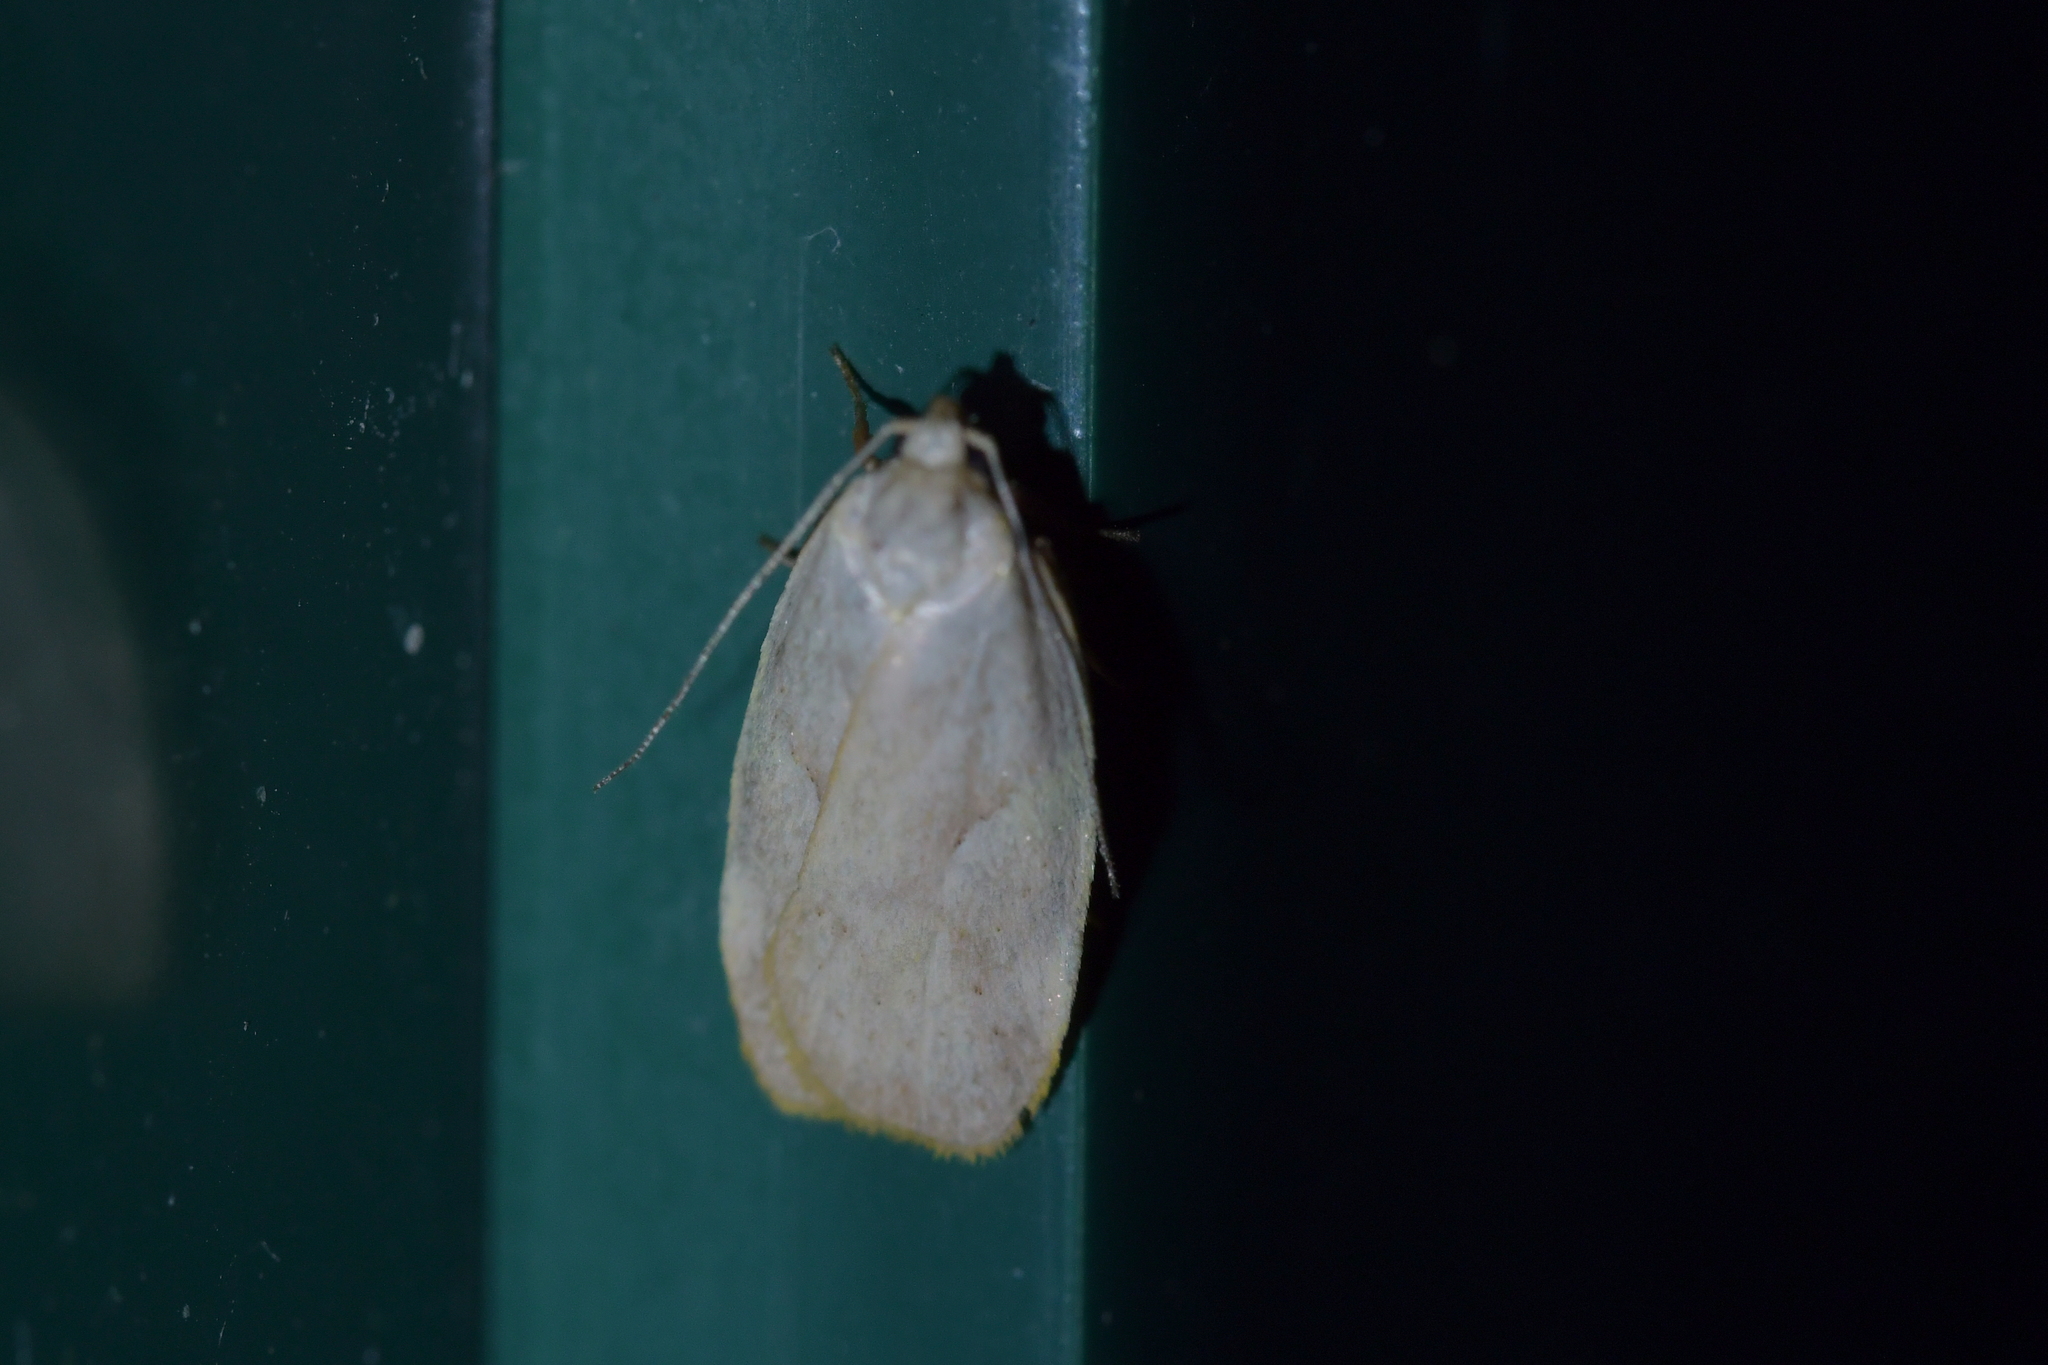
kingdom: Animalia
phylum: Arthropoda
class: Insecta
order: Lepidoptera
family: Oecophoridae
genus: Proteodes
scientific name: Proteodes carnifex
